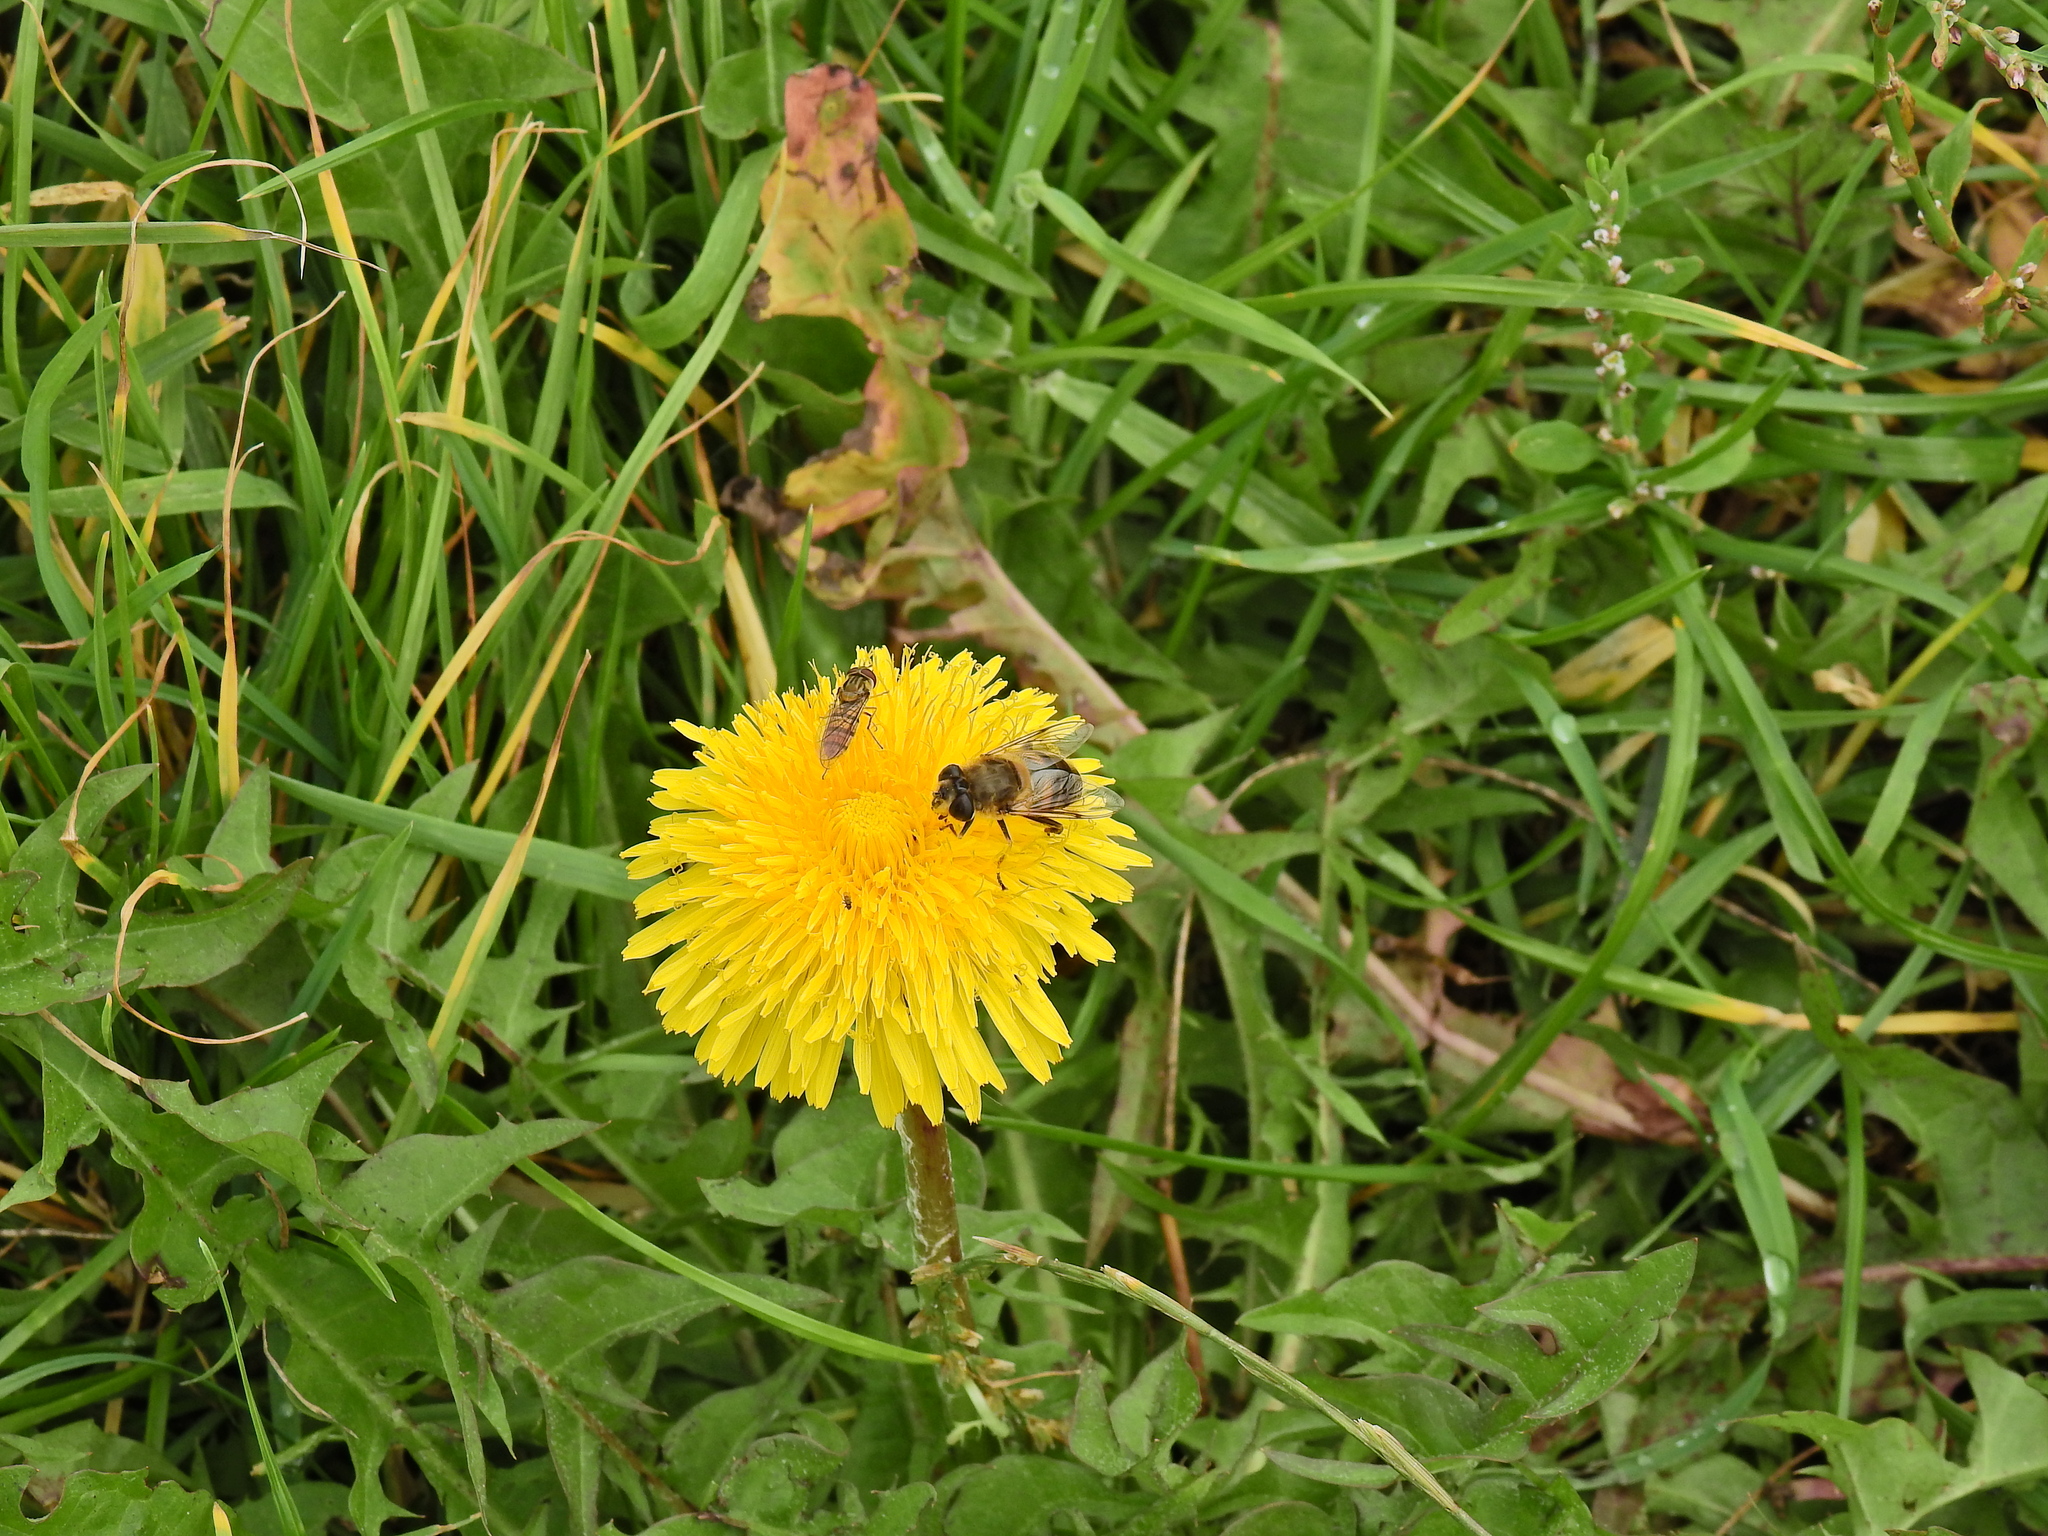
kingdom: Animalia
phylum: Arthropoda
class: Insecta
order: Diptera
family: Syrphidae
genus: Eristalis
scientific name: Eristalis tenax
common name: Drone fly
